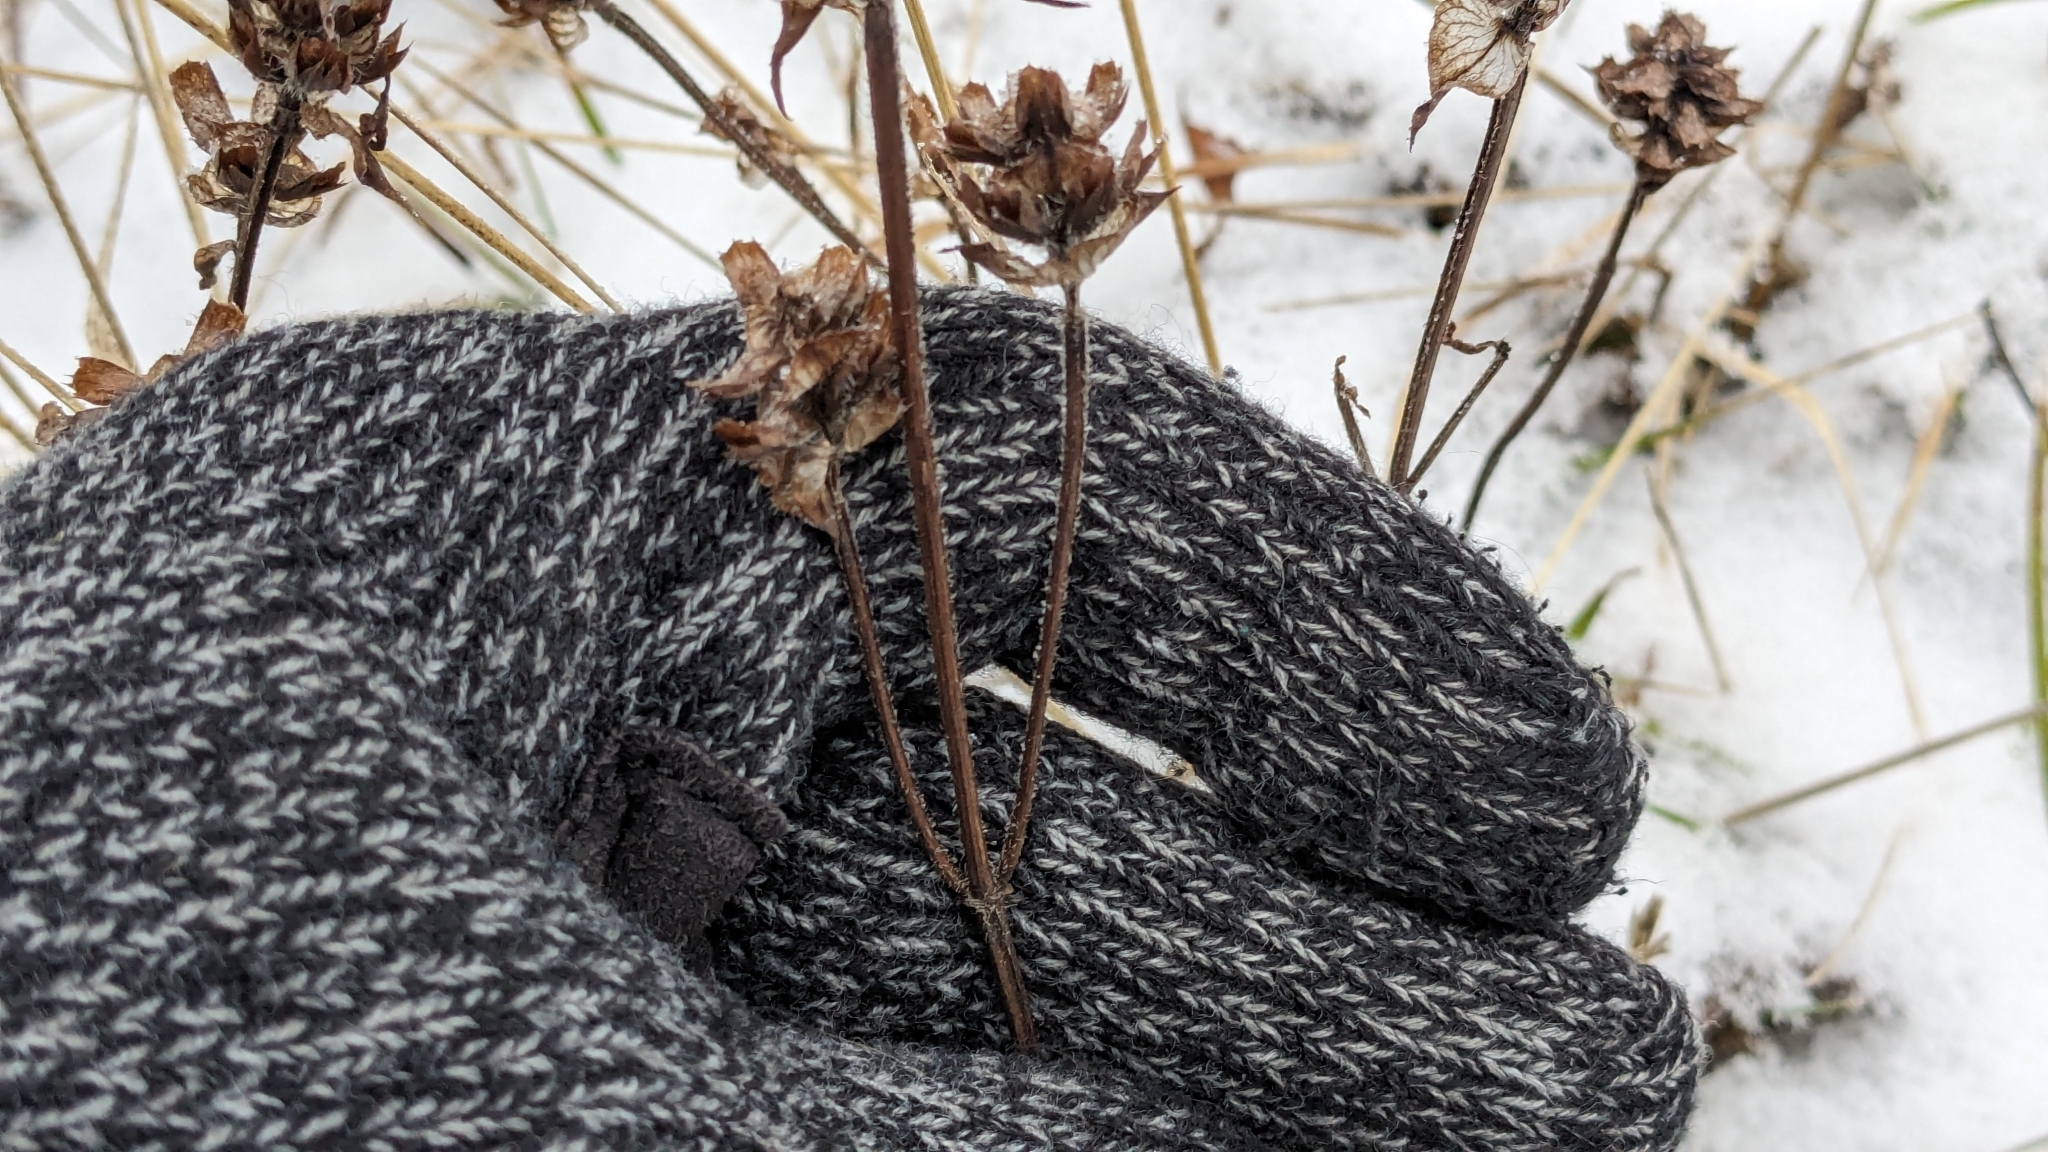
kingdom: Plantae
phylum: Tracheophyta
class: Magnoliopsida
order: Lamiales
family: Lamiaceae
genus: Prunella
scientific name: Prunella vulgaris
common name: Heal-all
